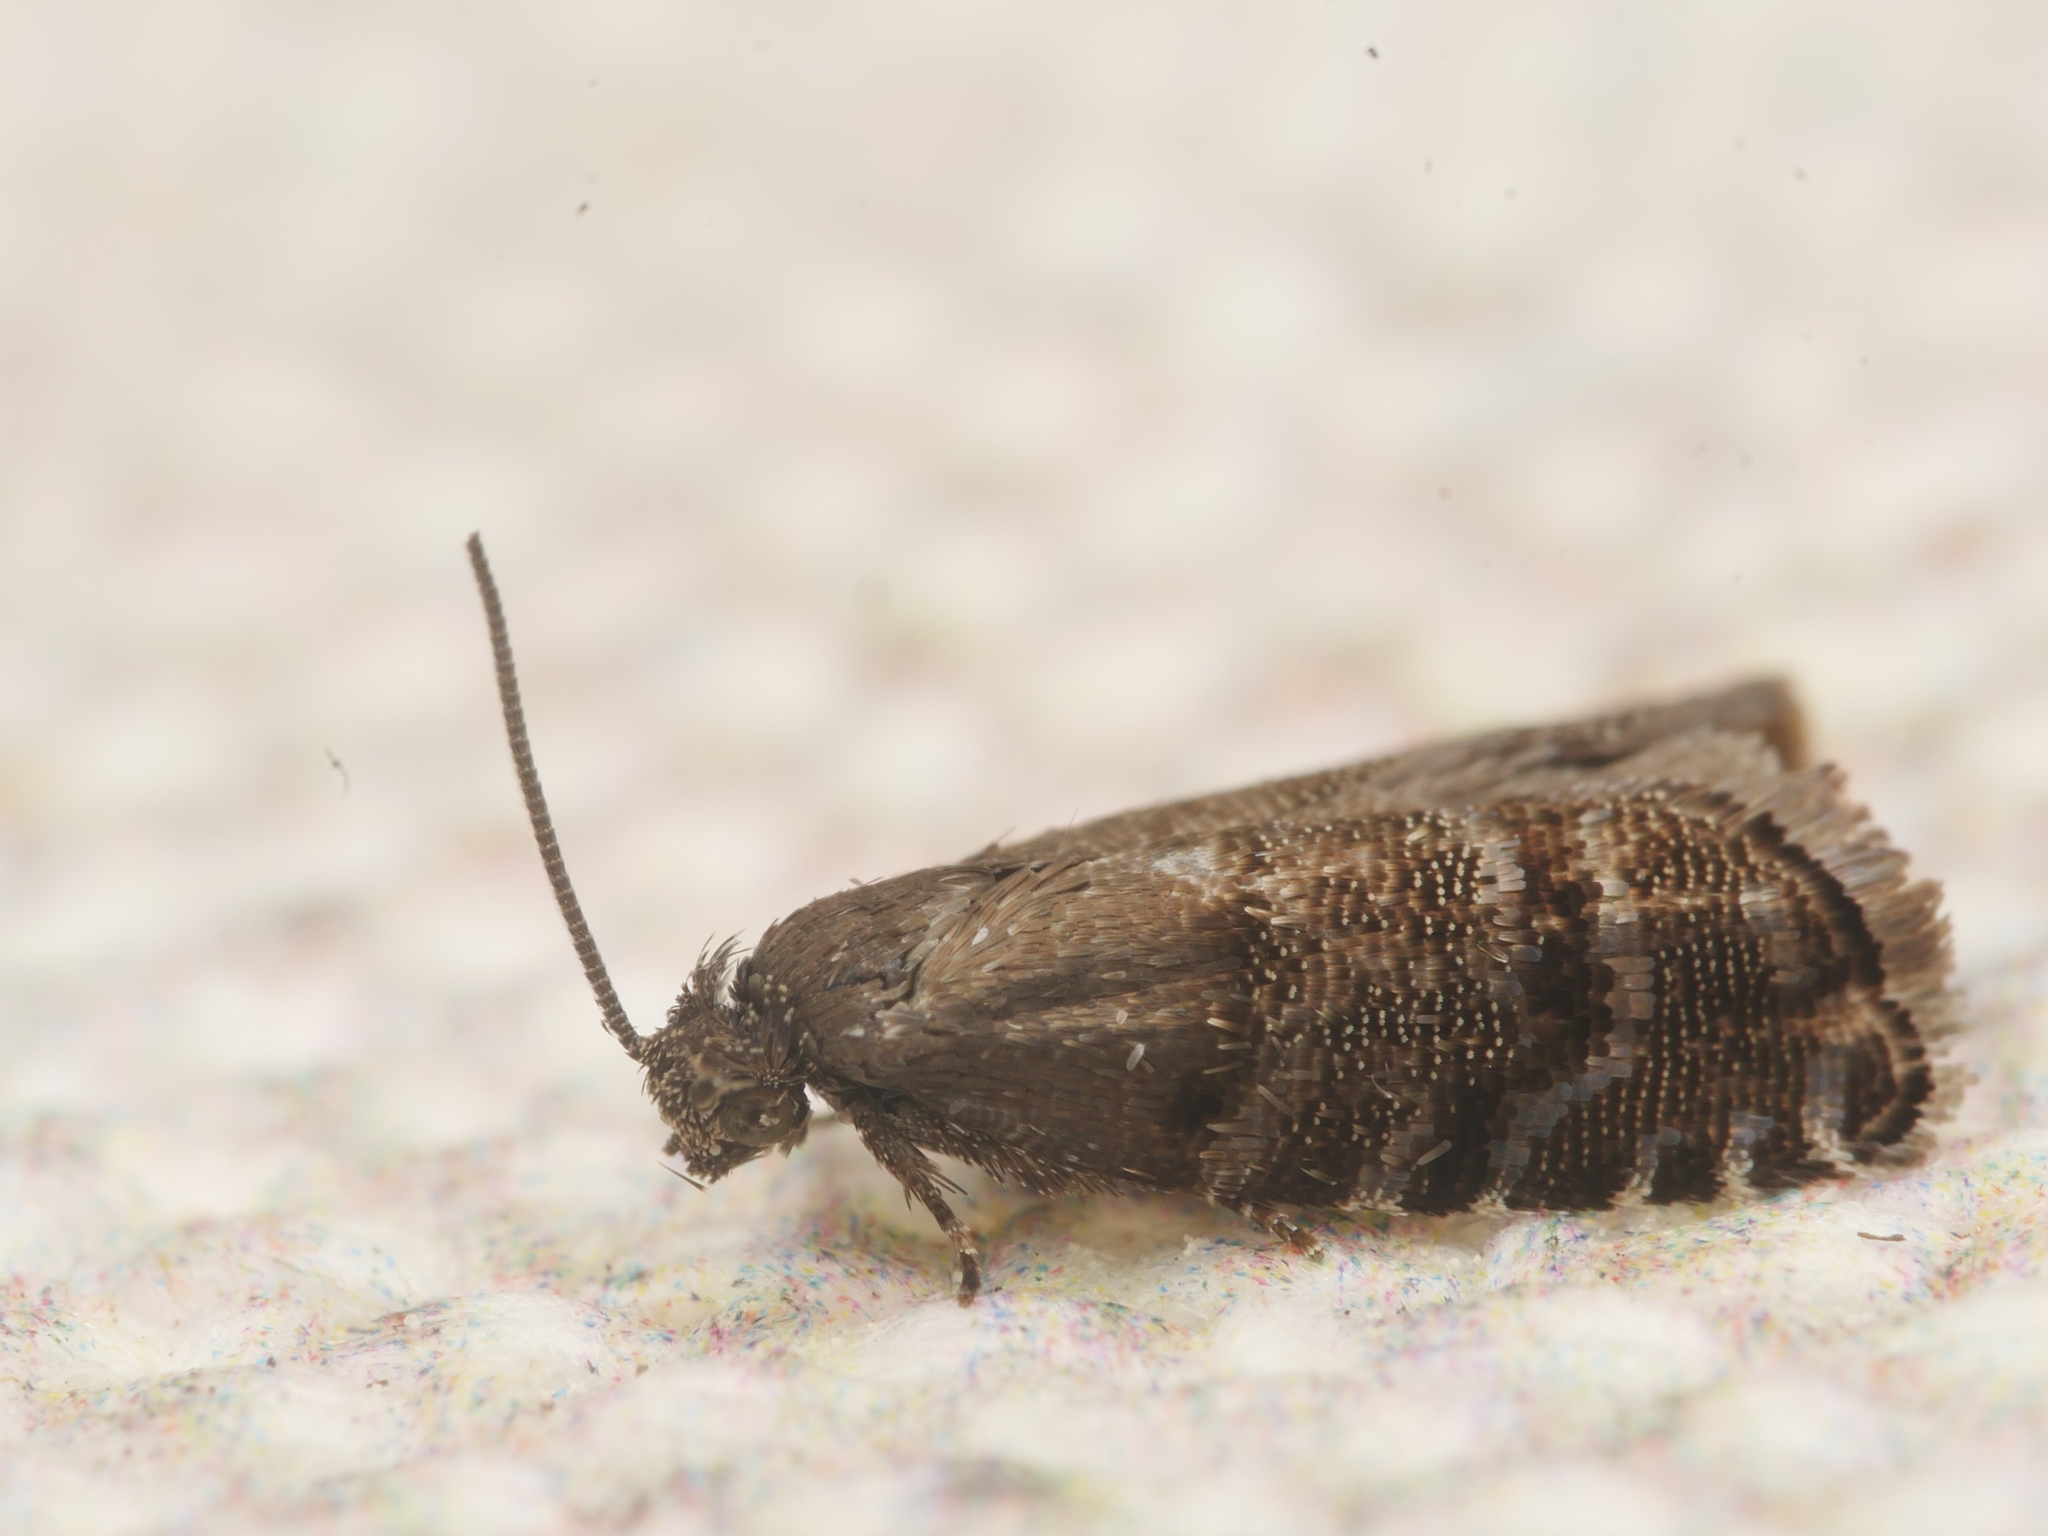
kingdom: Animalia
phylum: Arthropoda
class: Insecta
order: Lepidoptera
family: Tortricidae
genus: Pammene
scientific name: Pammene ochsenheimeriana
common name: Black-patch piercer
